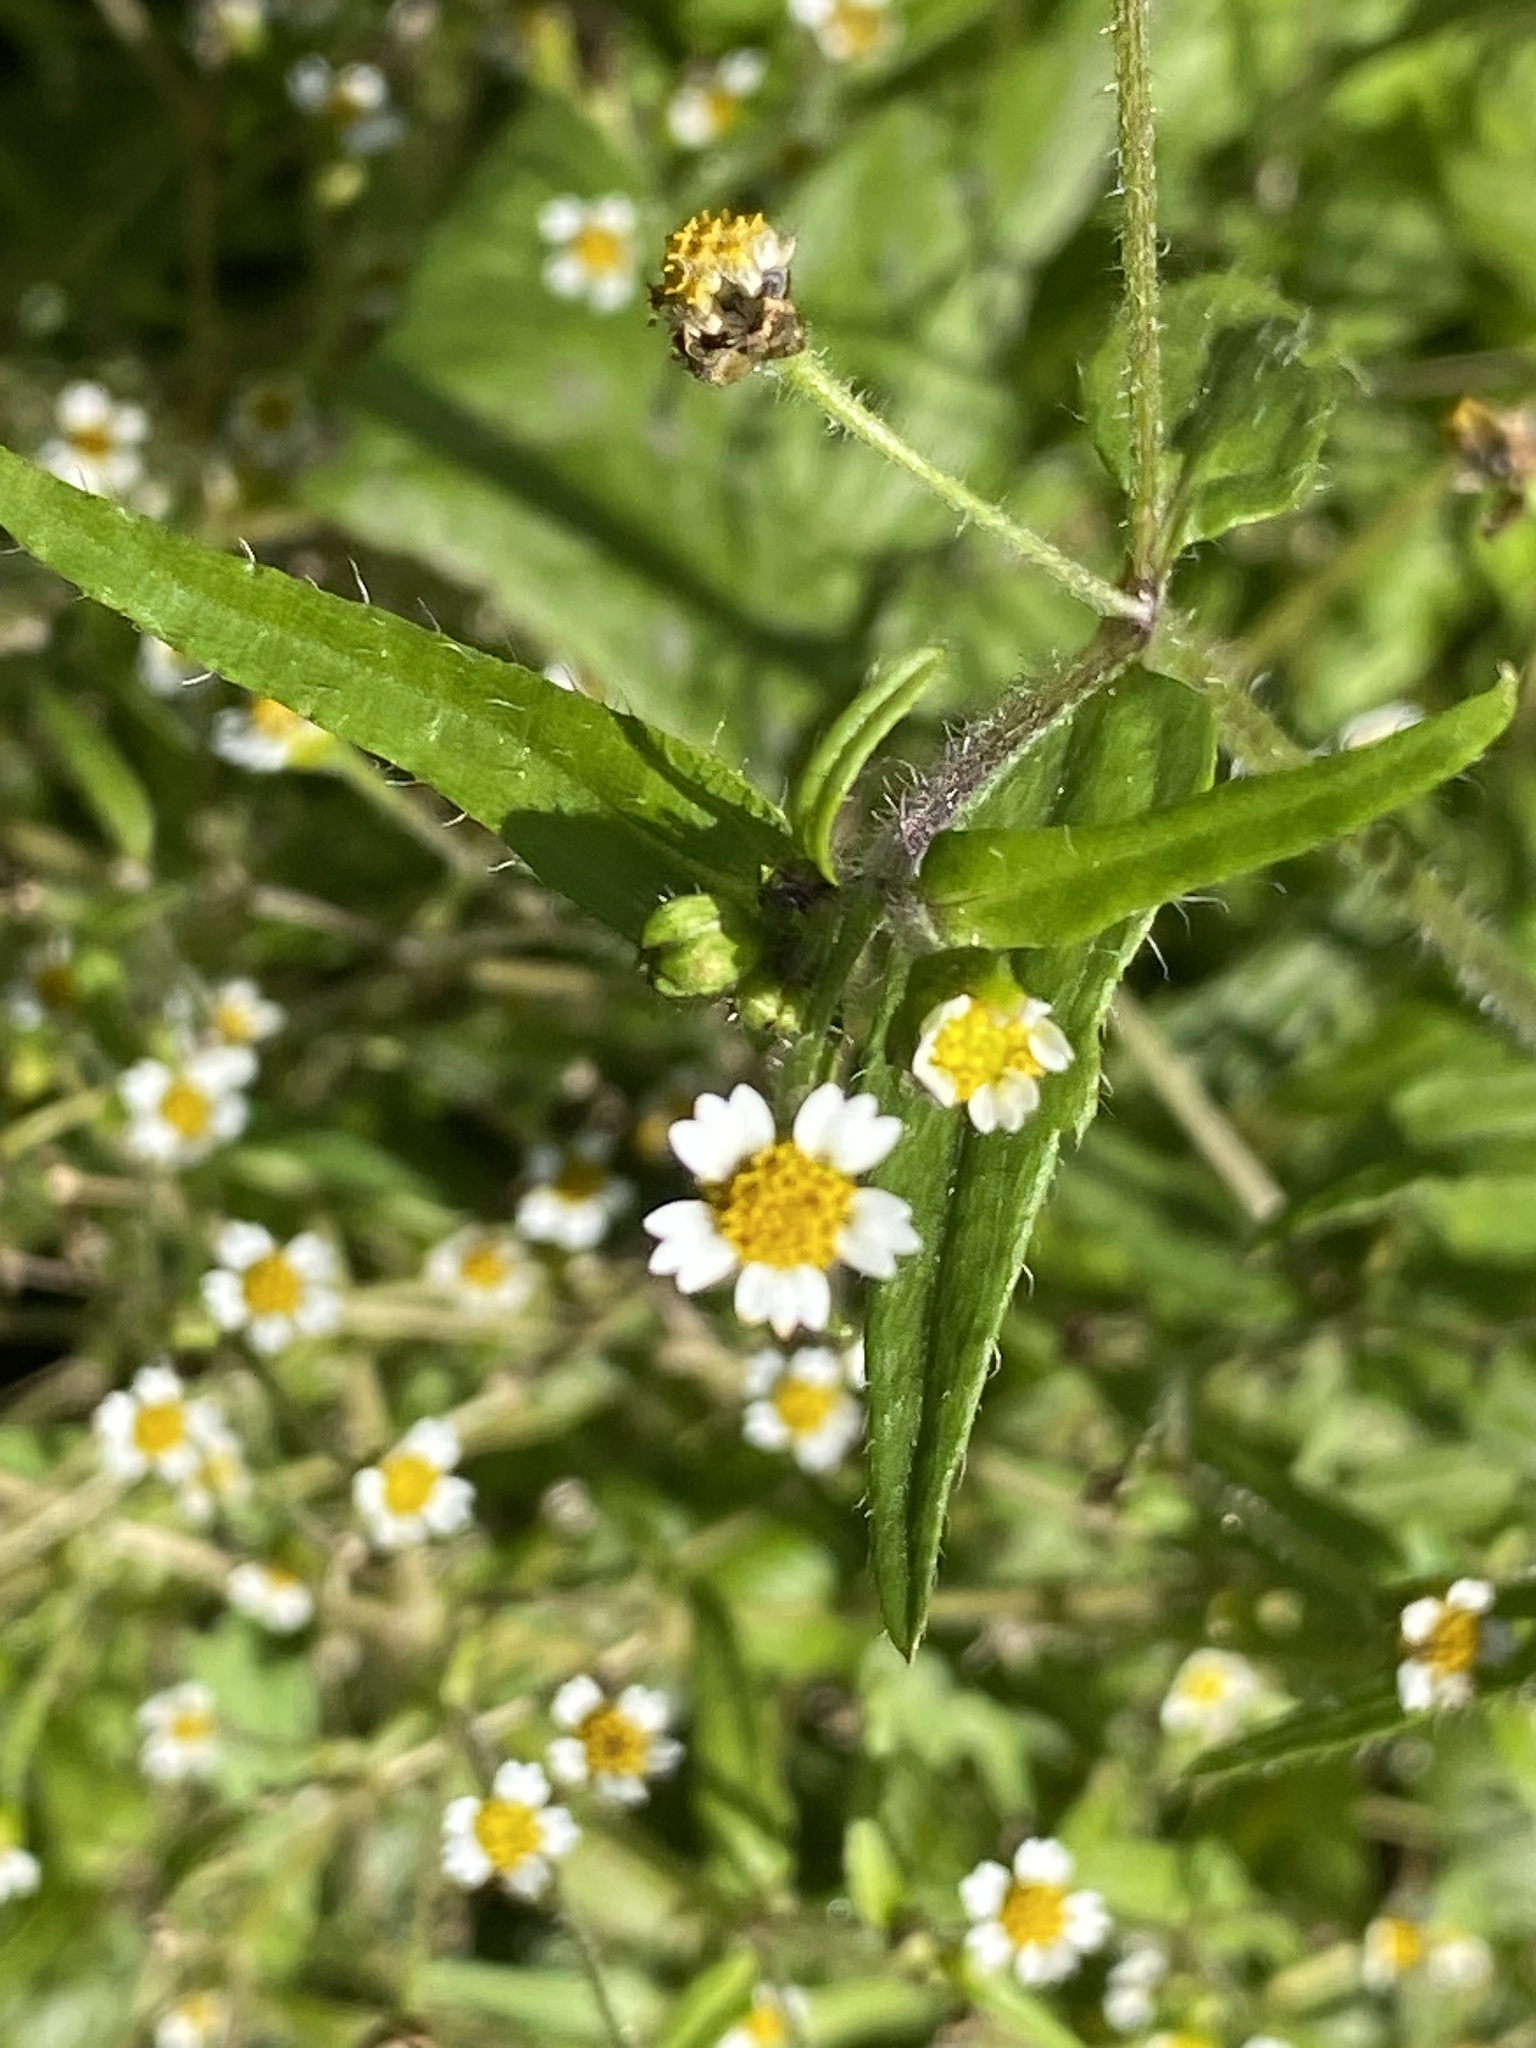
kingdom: Plantae
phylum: Tracheophyta
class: Magnoliopsida
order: Asterales
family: Asteraceae
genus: Galinsoga
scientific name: Galinsoga quadriradiata
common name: Shaggy soldier
